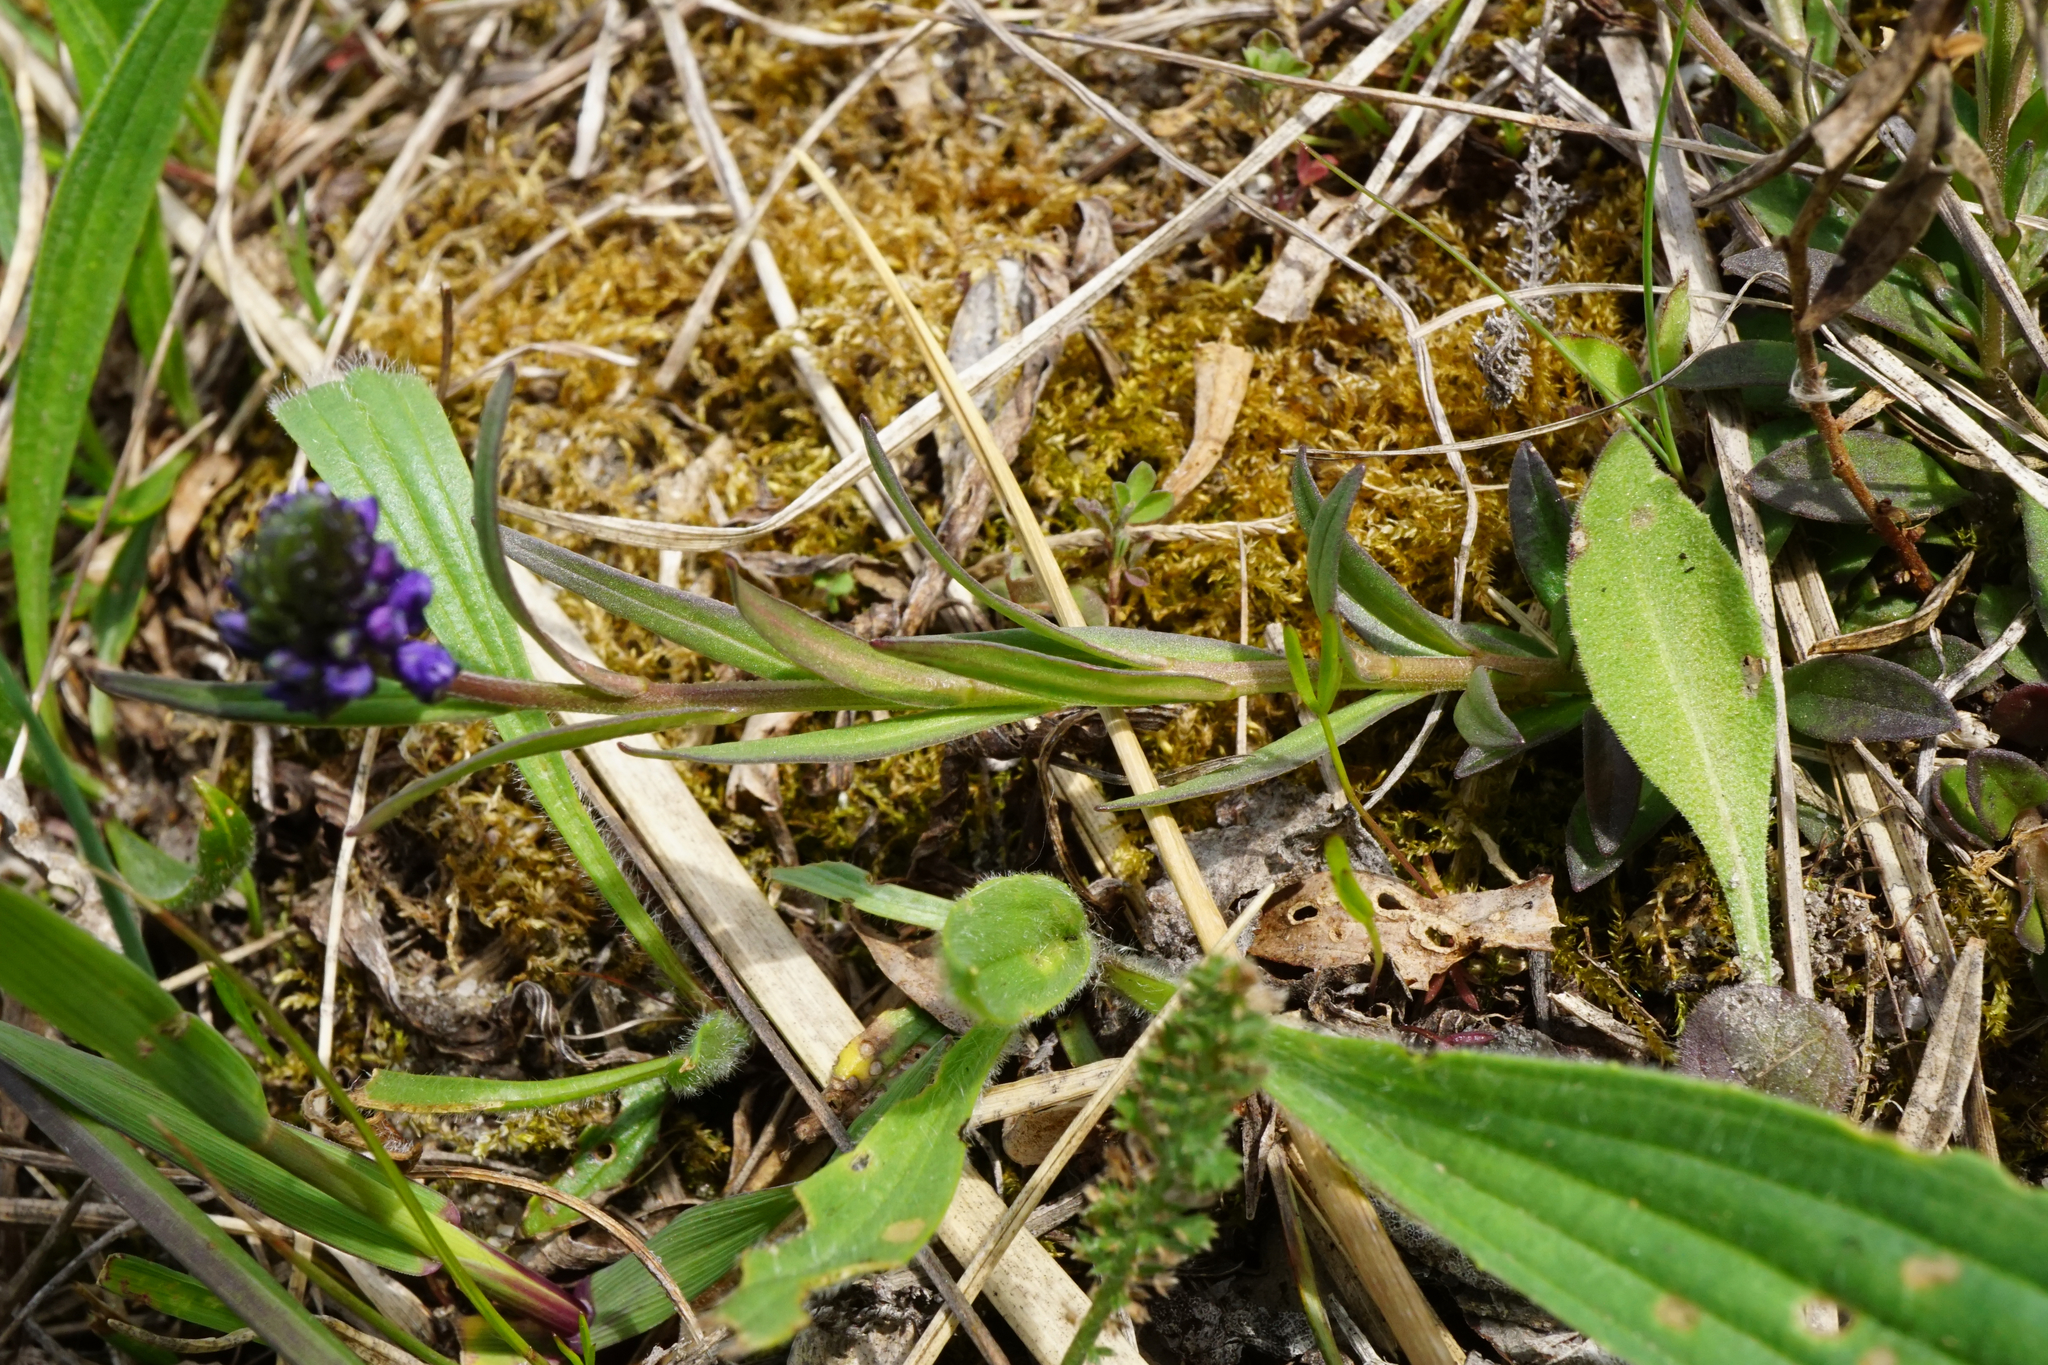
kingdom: Plantae
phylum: Tracheophyta
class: Magnoliopsida
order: Fabales
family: Polygalaceae
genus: Polygala
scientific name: Polygala comosa
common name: Tufted milkwort
